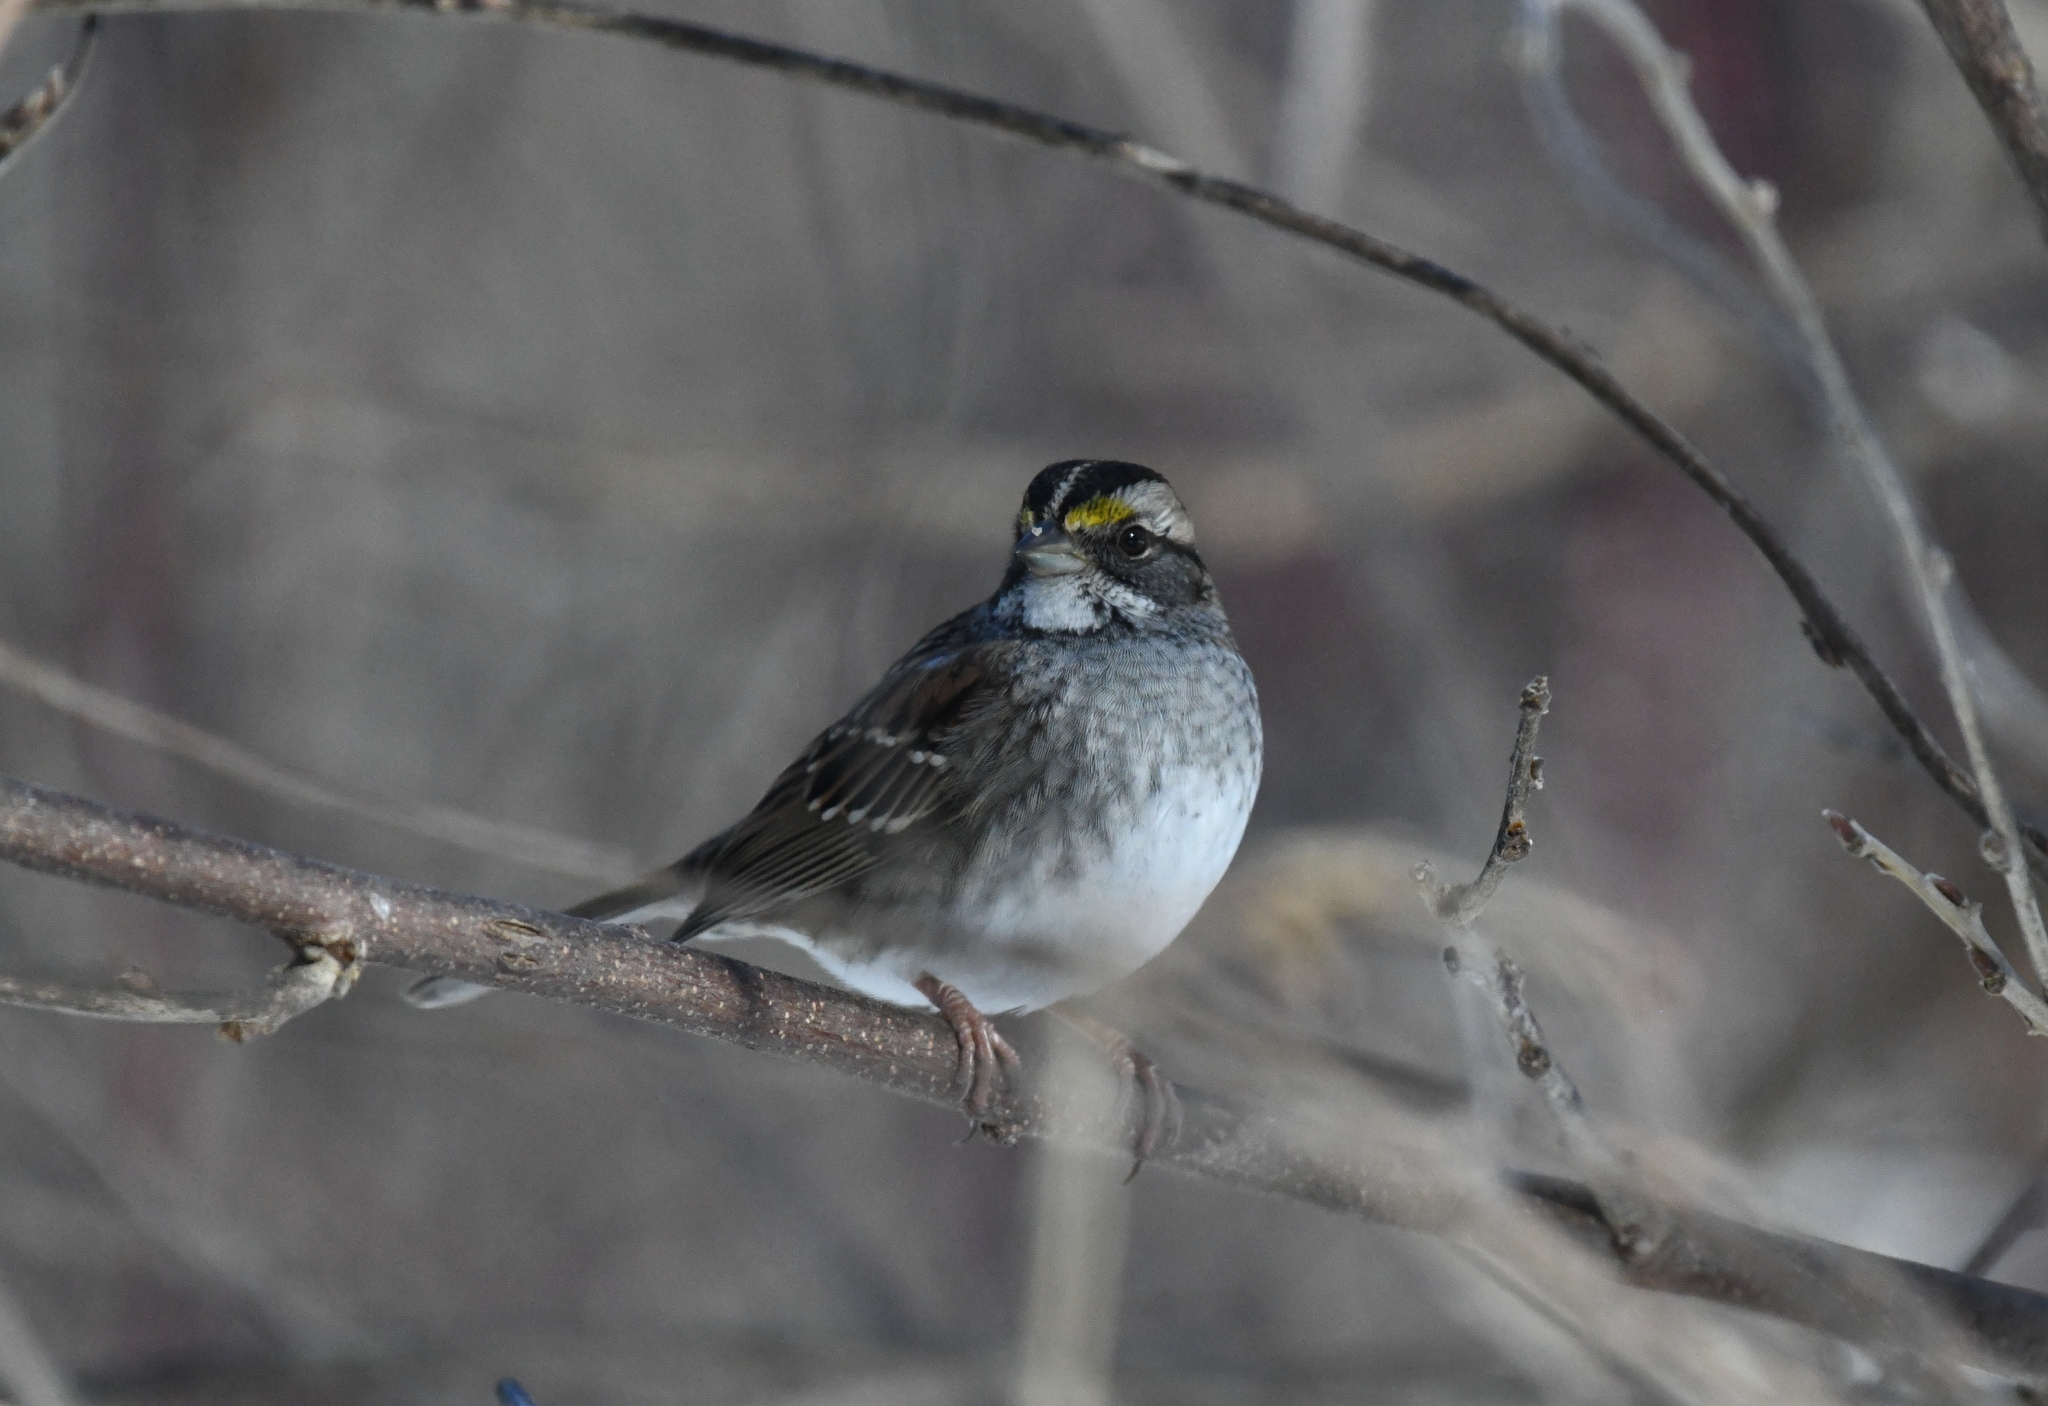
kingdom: Animalia
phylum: Chordata
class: Aves
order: Passeriformes
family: Passerellidae
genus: Zonotrichia
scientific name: Zonotrichia albicollis
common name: White-throated sparrow
